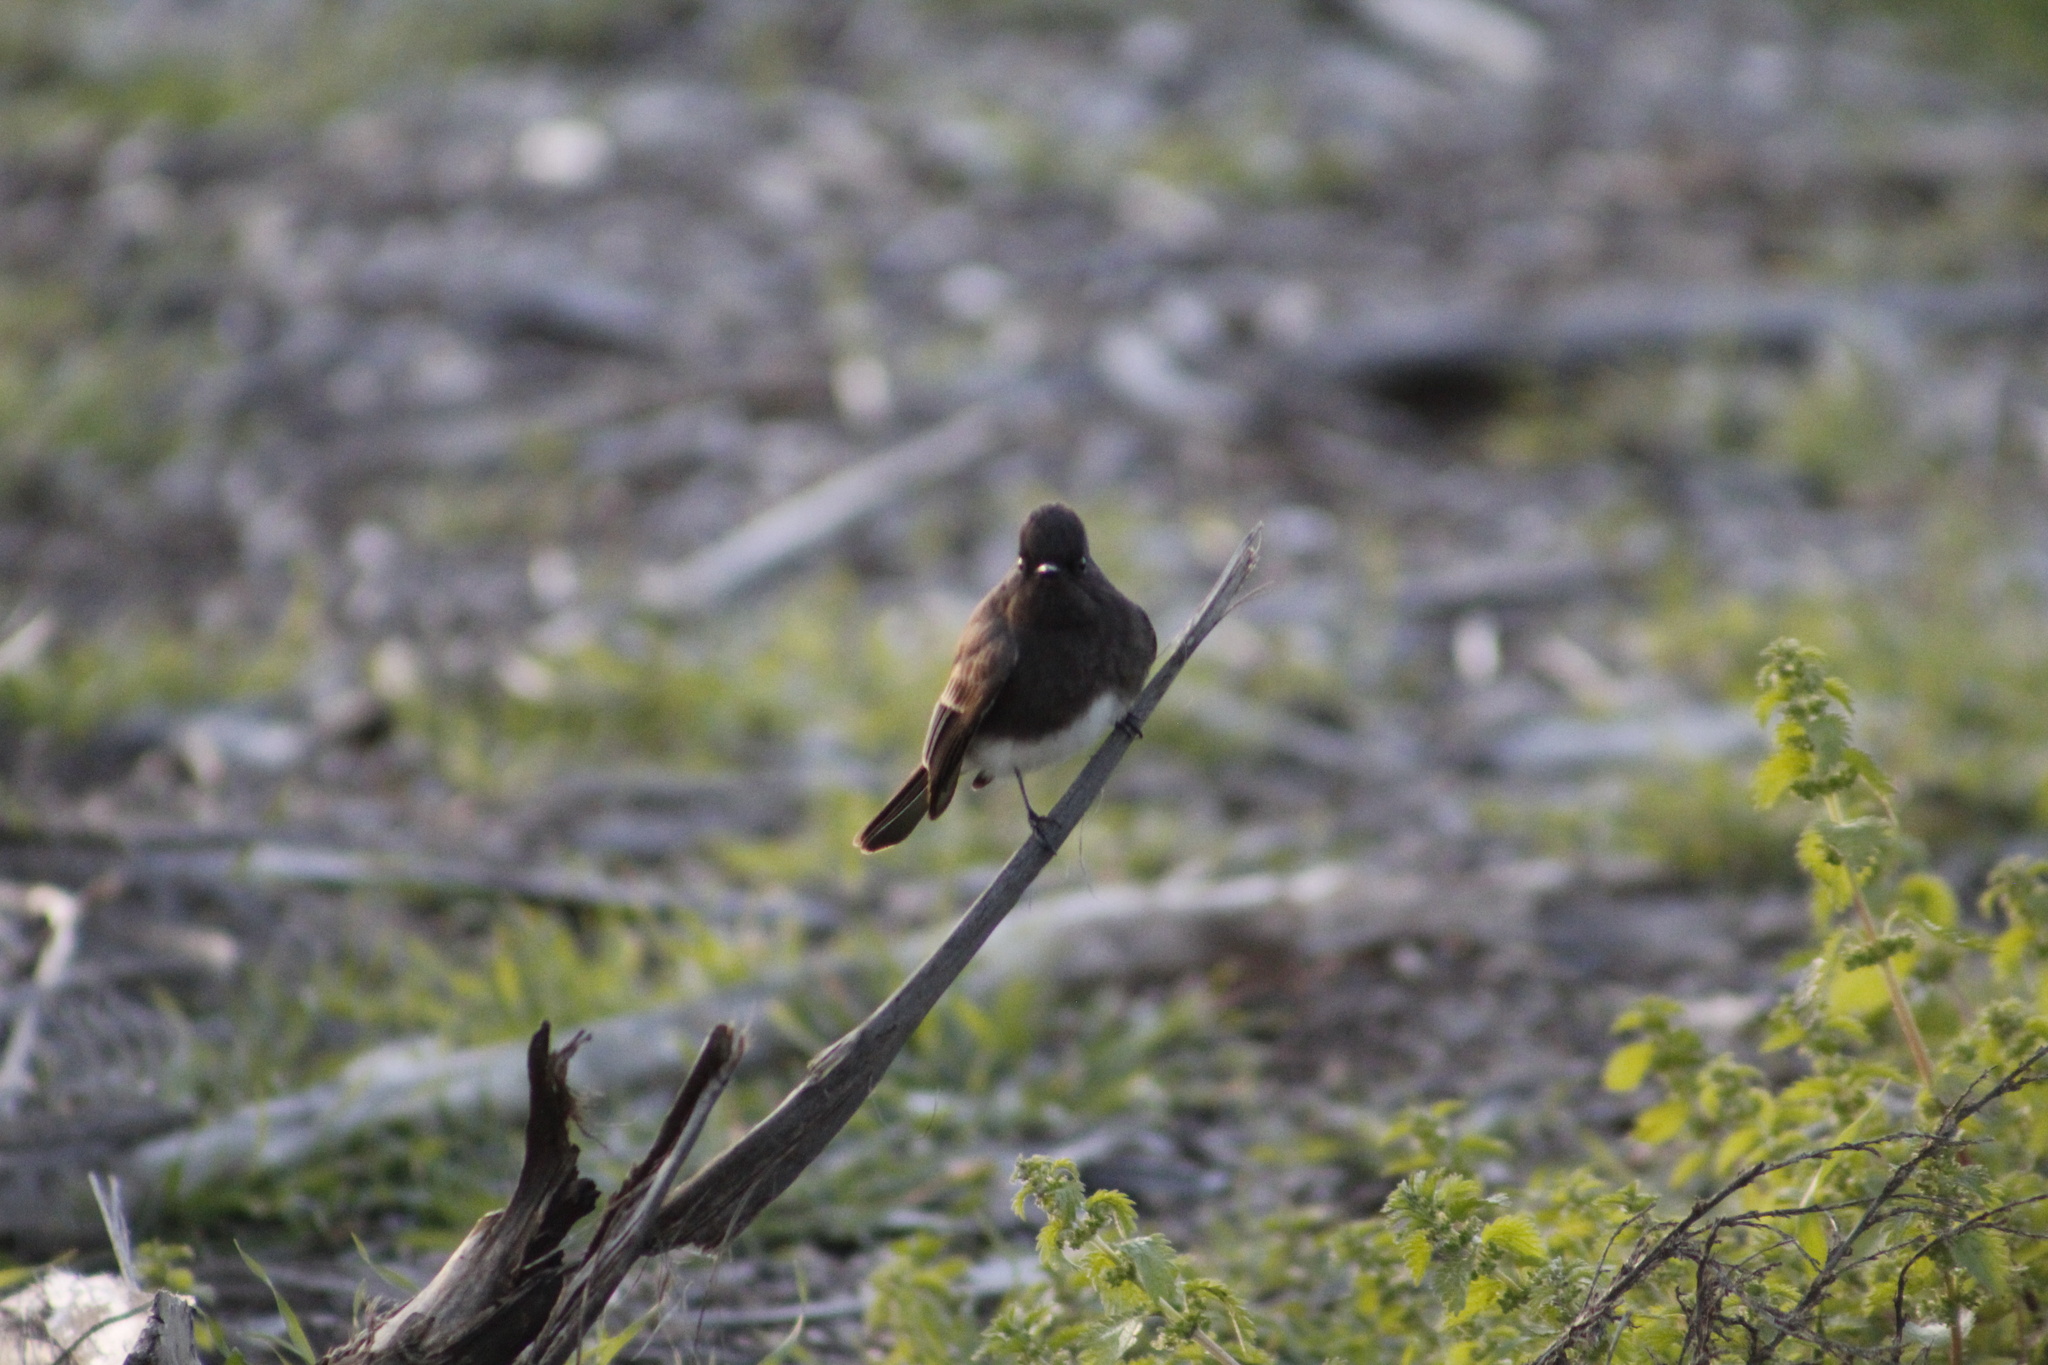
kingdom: Animalia
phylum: Chordata
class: Aves
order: Passeriformes
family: Tyrannidae
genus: Sayornis
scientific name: Sayornis nigricans
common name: Black phoebe
